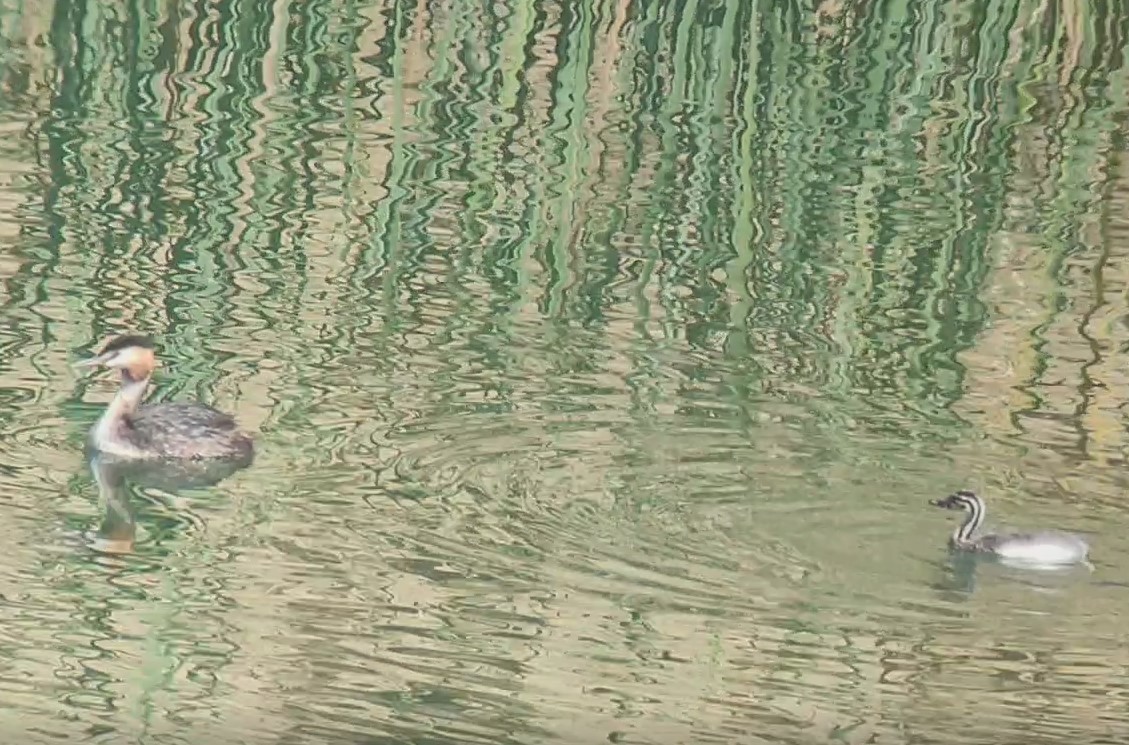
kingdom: Animalia
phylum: Chordata
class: Aves
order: Podicipediformes
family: Podicipedidae
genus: Podiceps
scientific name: Podiceps cristatus
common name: Great crested grebe
